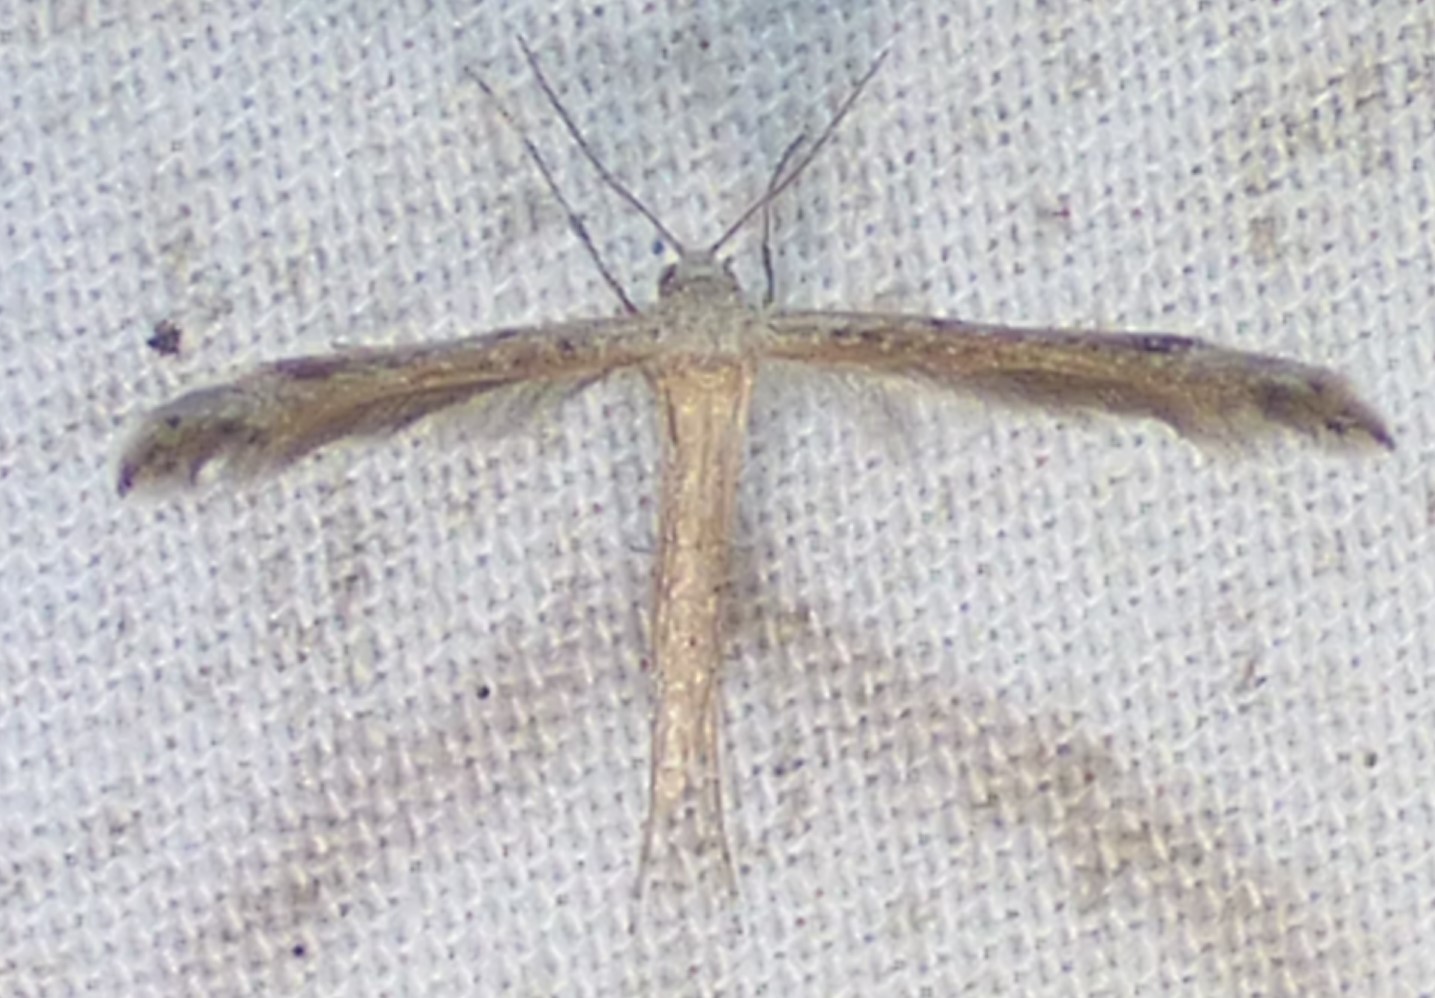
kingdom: Animalia
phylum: Arthropoda
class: Insecta
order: Lepidoptera
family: Pterophoridae
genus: Lioptilodes
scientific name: Lioptilodes albistriolatus
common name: Moth
